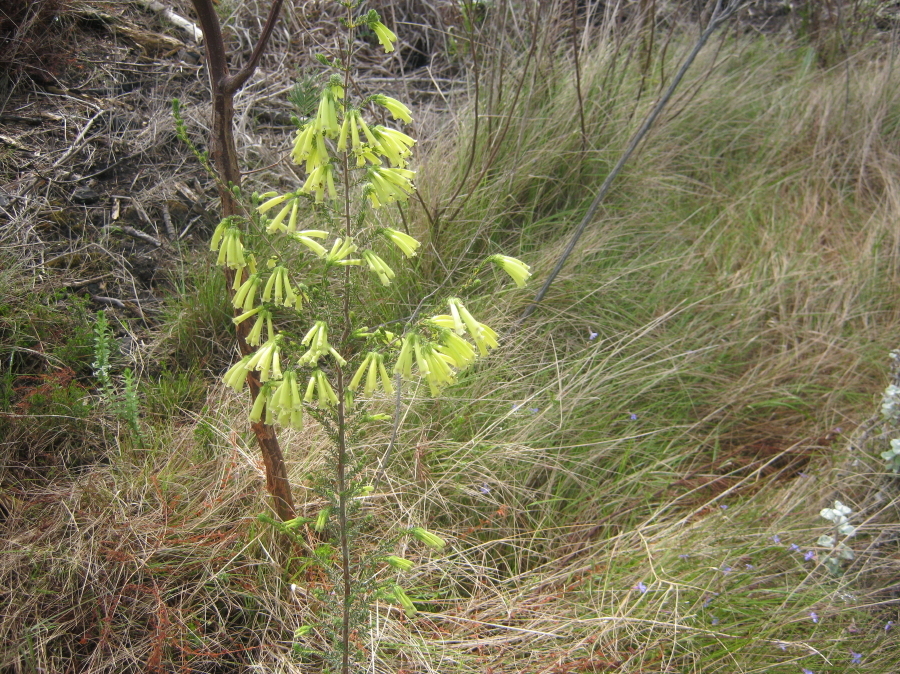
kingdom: Plantae
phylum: Tracheophyta
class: Magnoliopsida
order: Ericales
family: Ericaceae
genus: Erica
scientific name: Erica glandulosa
